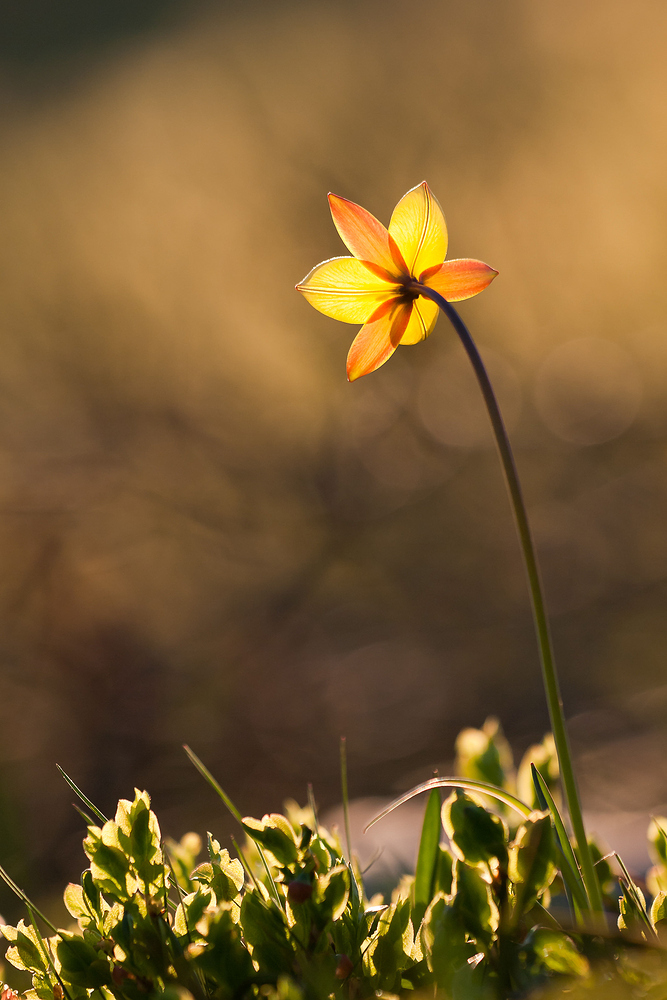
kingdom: Plantae
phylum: Tracheophyta
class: Liliopsida
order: Liliales
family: Liliaceae
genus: Tulipa
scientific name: Tulipa sylvestris
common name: Wild tulip
